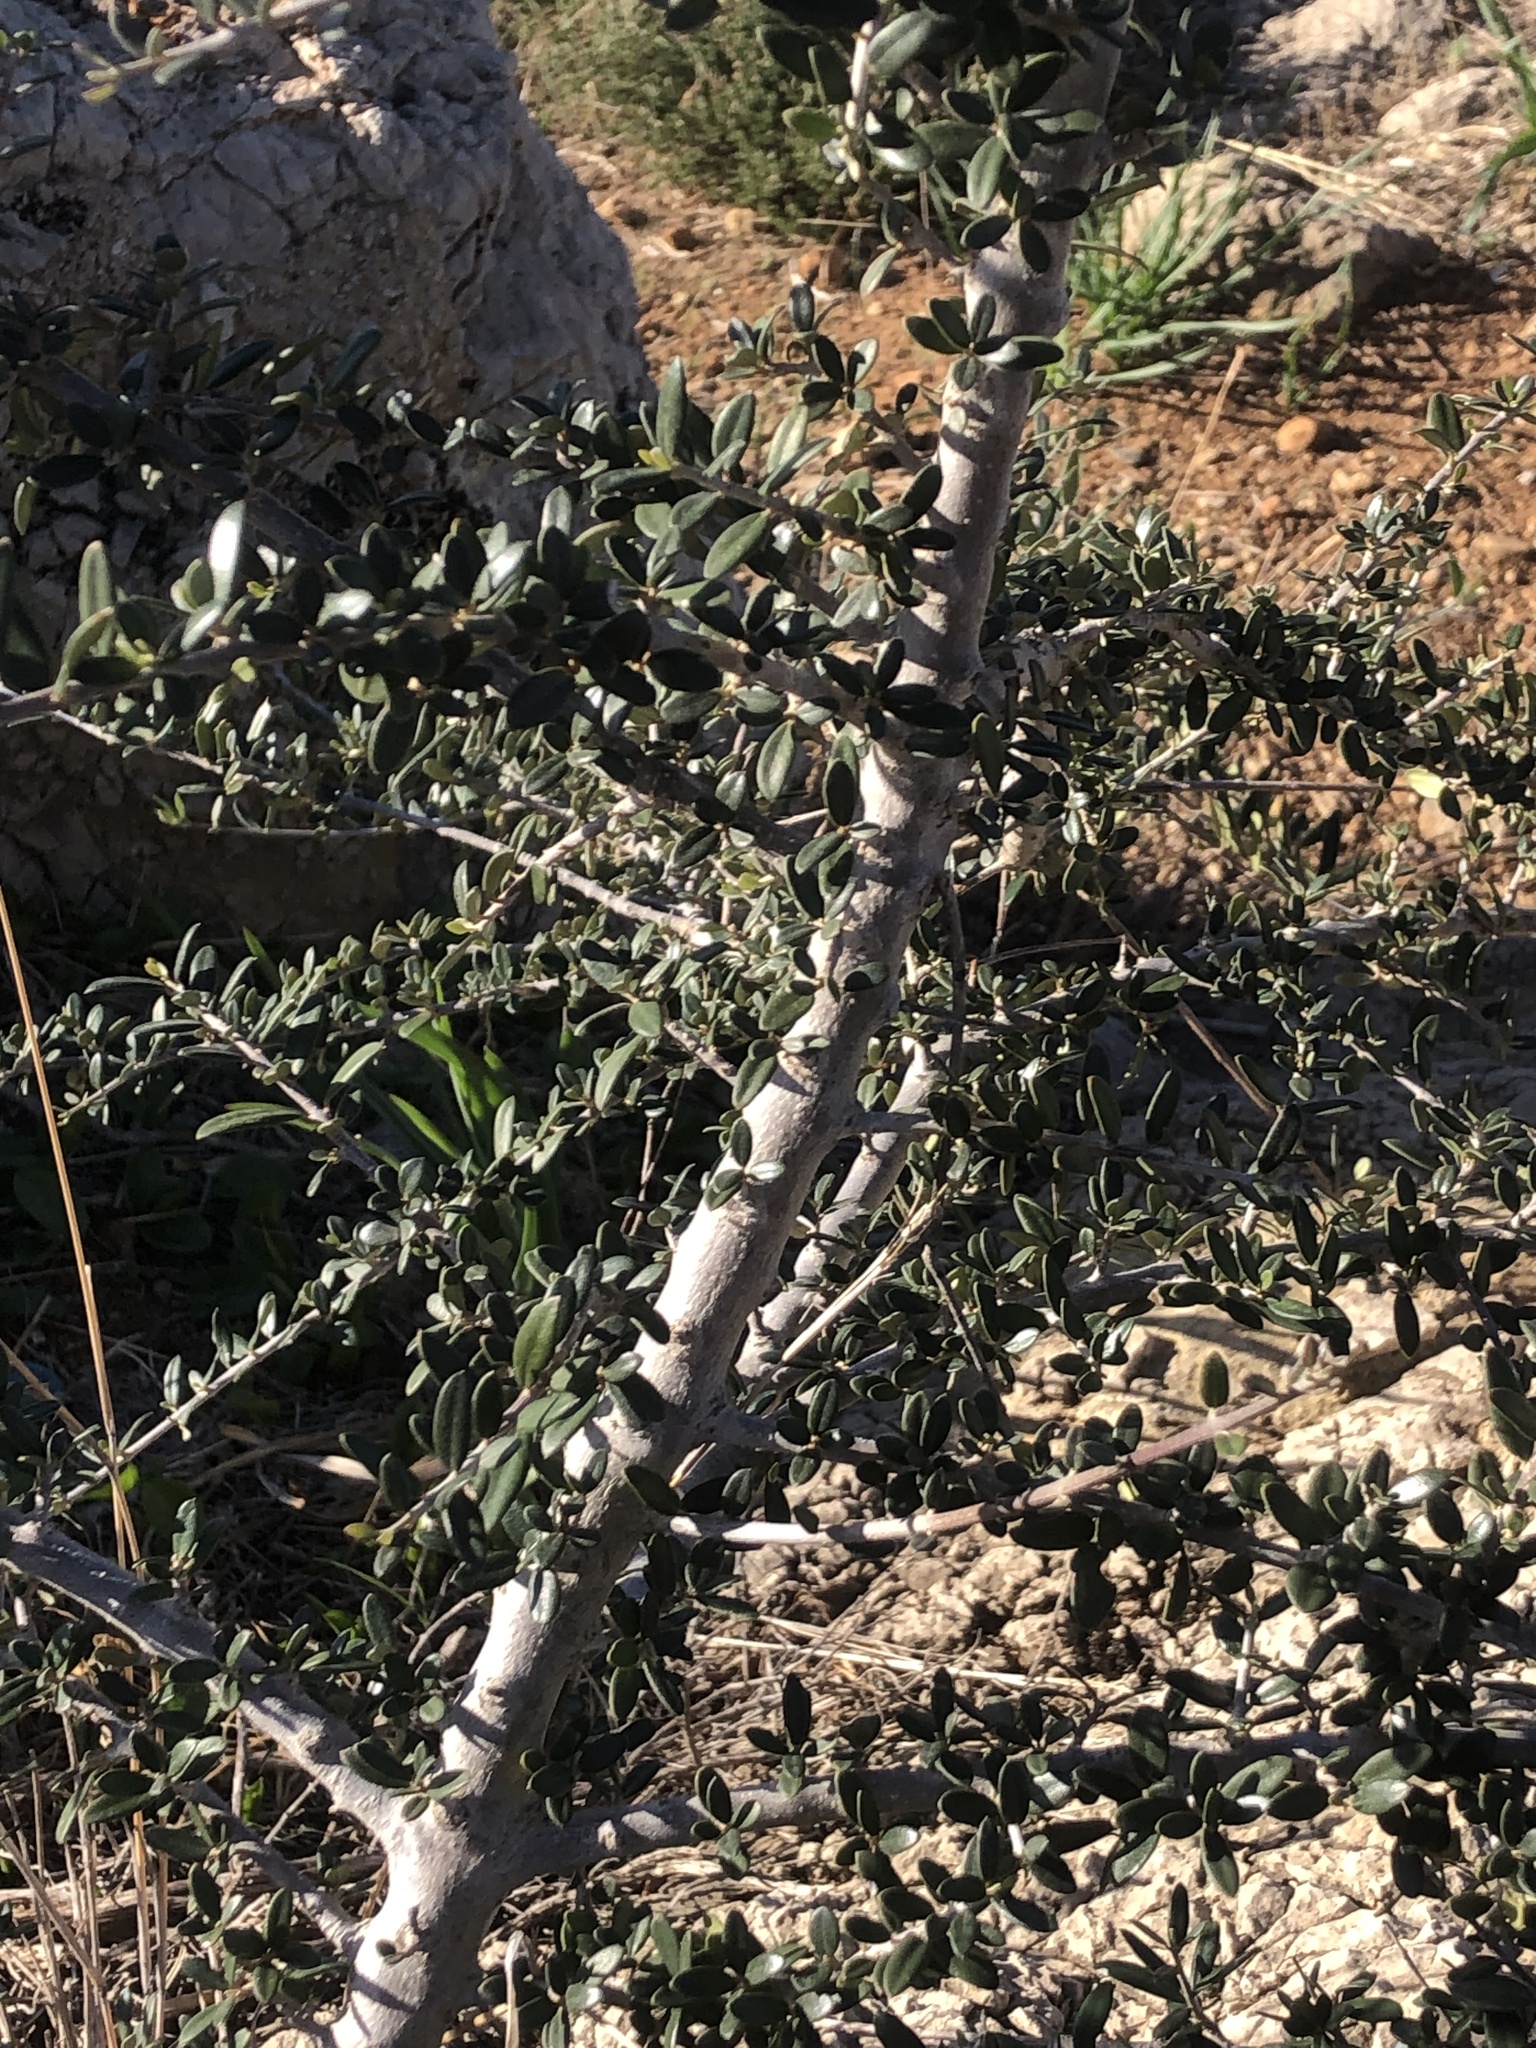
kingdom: Plantae
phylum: Tracheophyta
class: Magnoliopsida
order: Lamiales
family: Oleaceae
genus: Olea
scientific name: Olea europaea
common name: Olive
